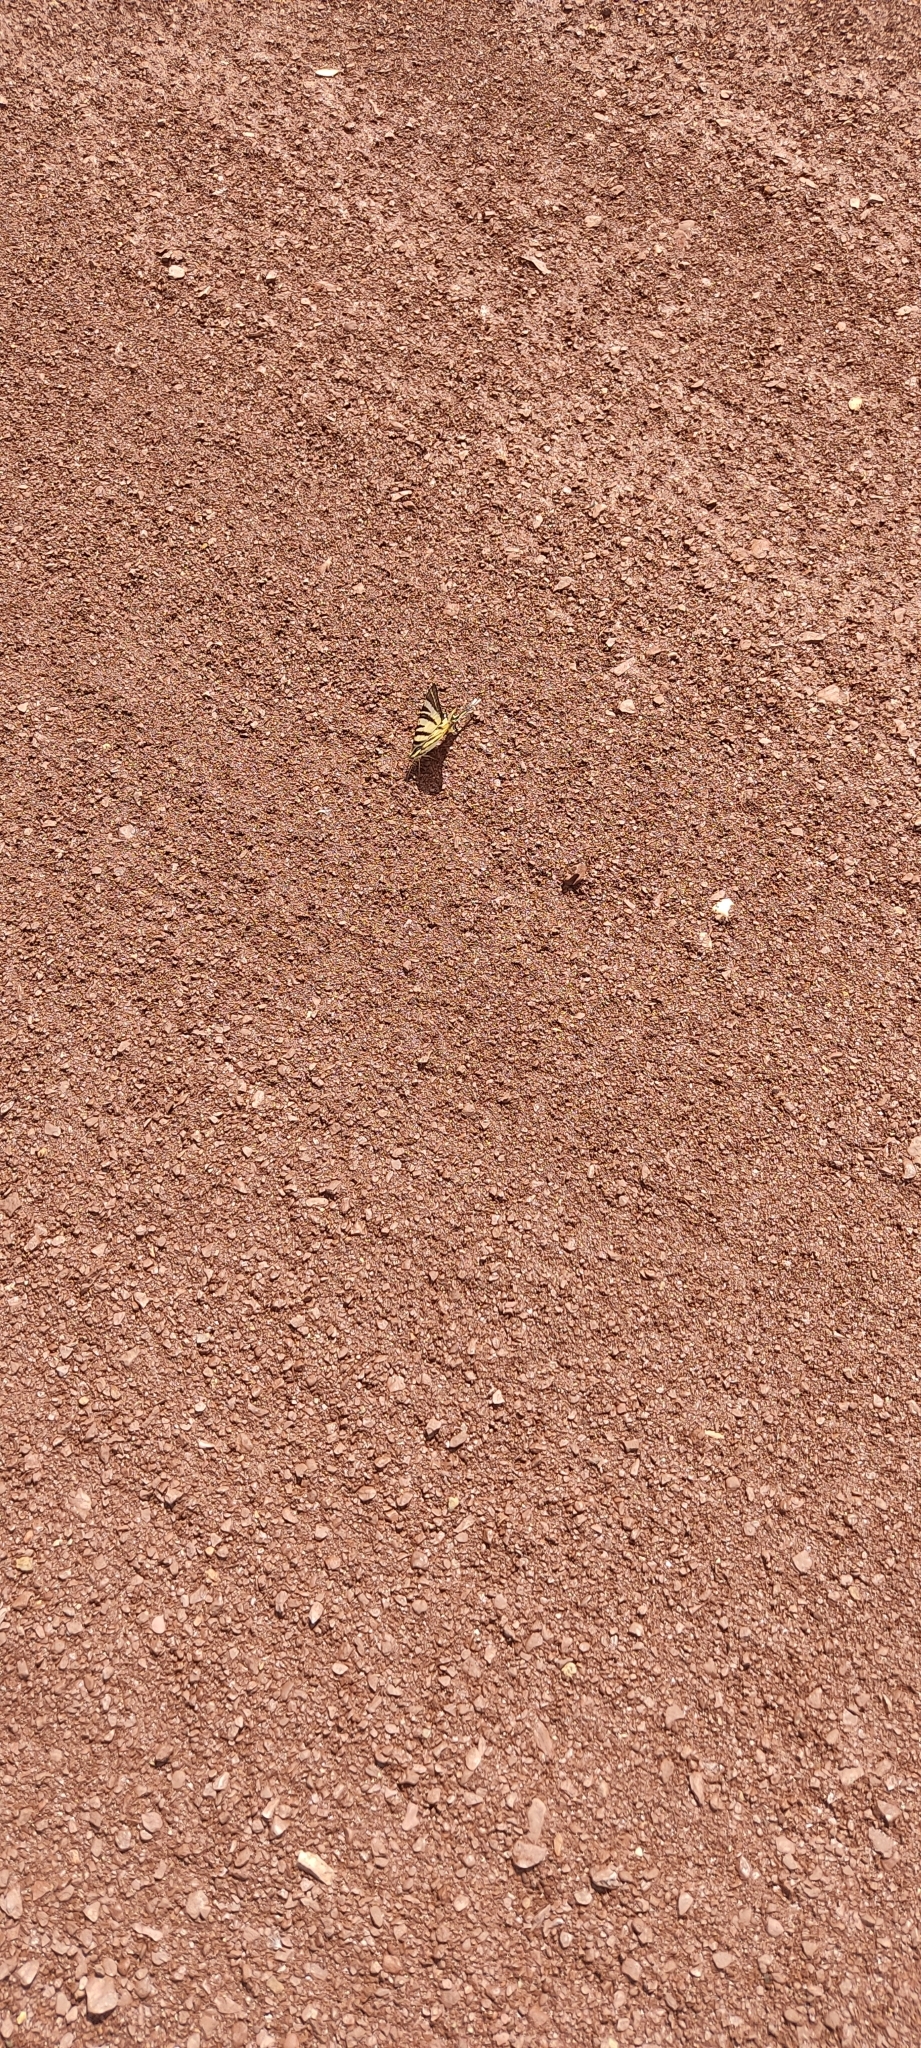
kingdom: Animalia
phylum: Arthropoda
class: Insecta
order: Lepidoptera
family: Papilionidae
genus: Iphiclides
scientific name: Iphiclides podalirius
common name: Scarce swallowtail
